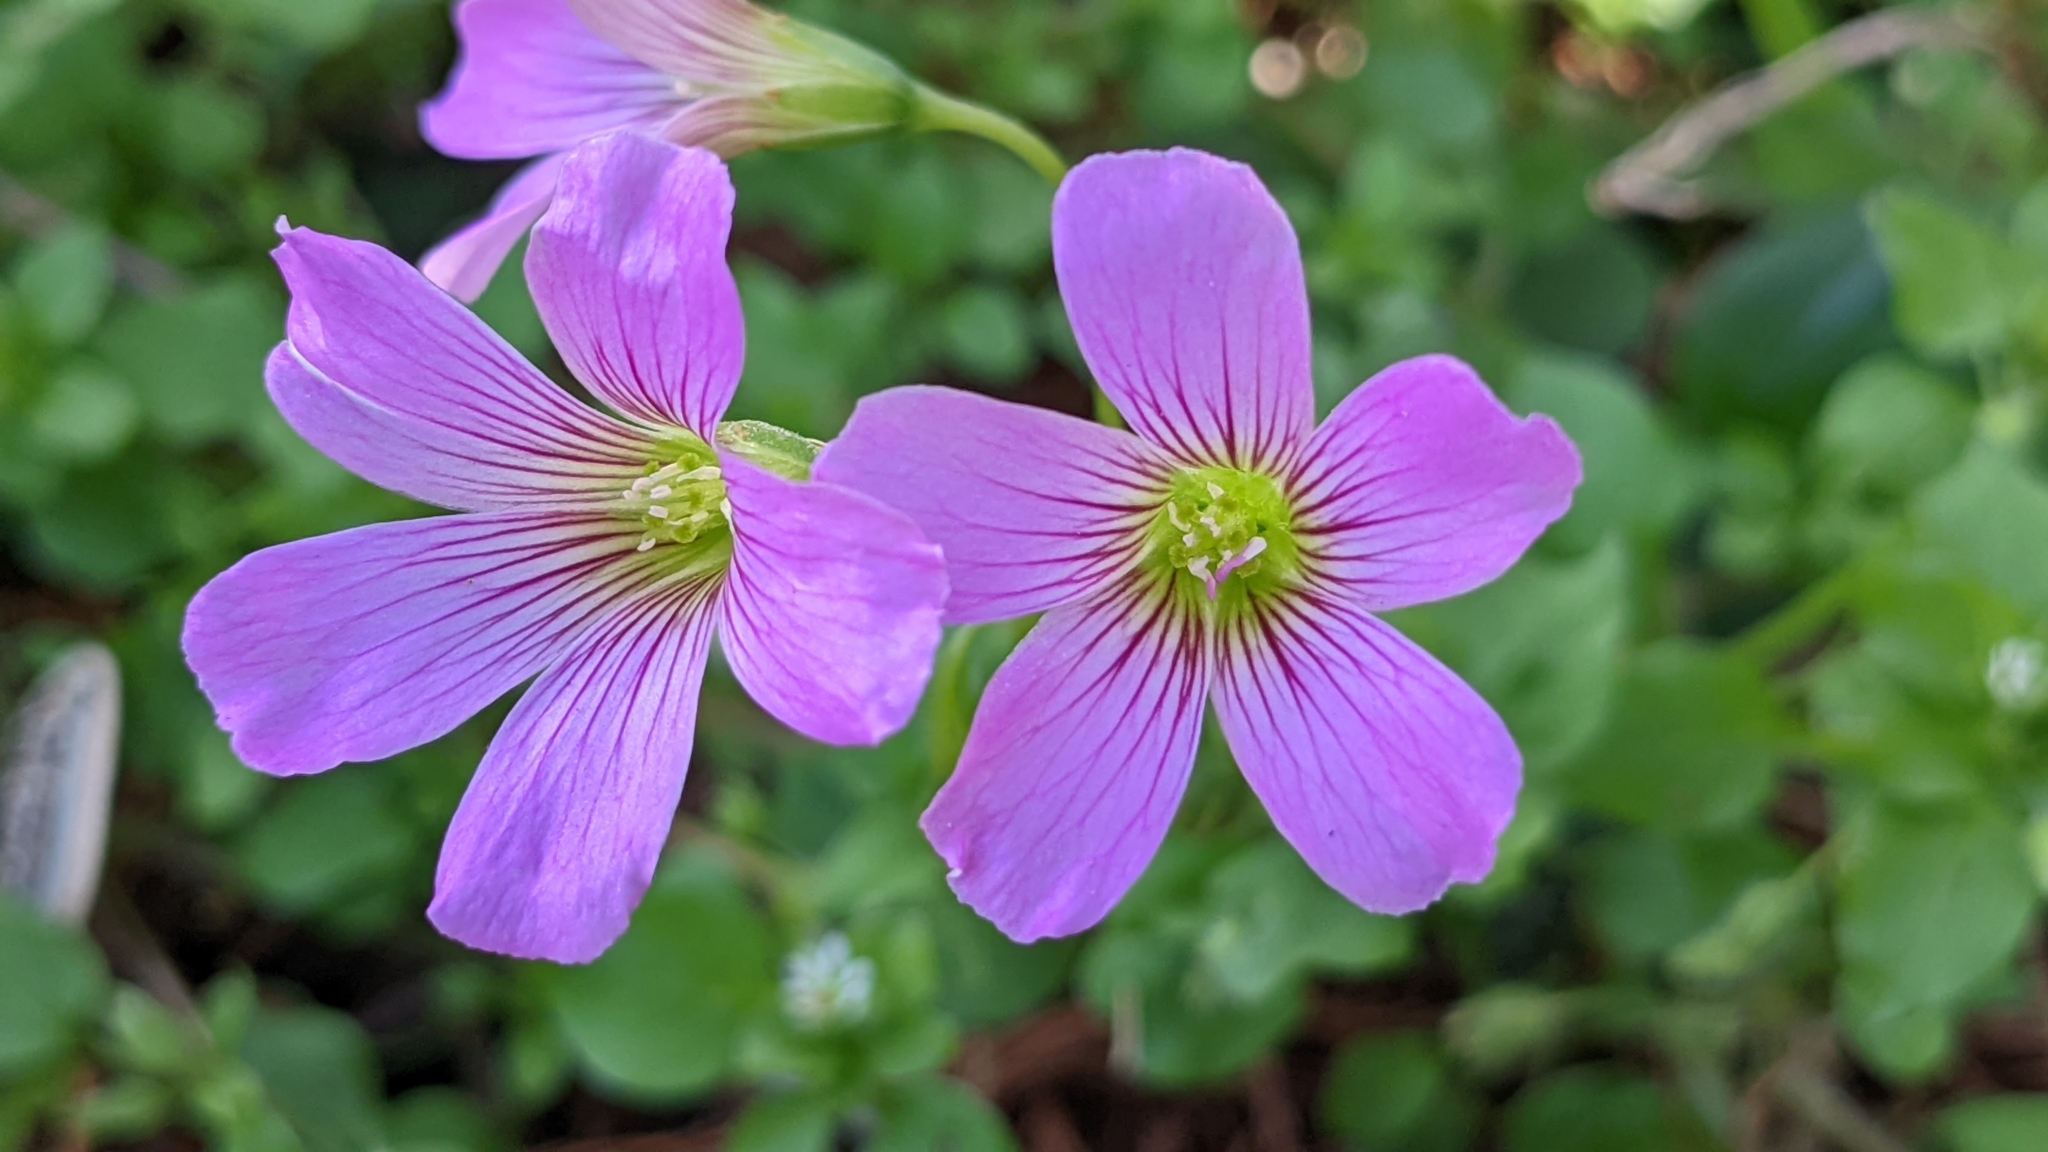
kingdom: Plantae
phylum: Tracheophyta
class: Magnoliopsida
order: Oxalidales
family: Oxalidaceae
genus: Oxalis
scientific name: Oxalis debilis
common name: Large-flowered pink-sorrel
